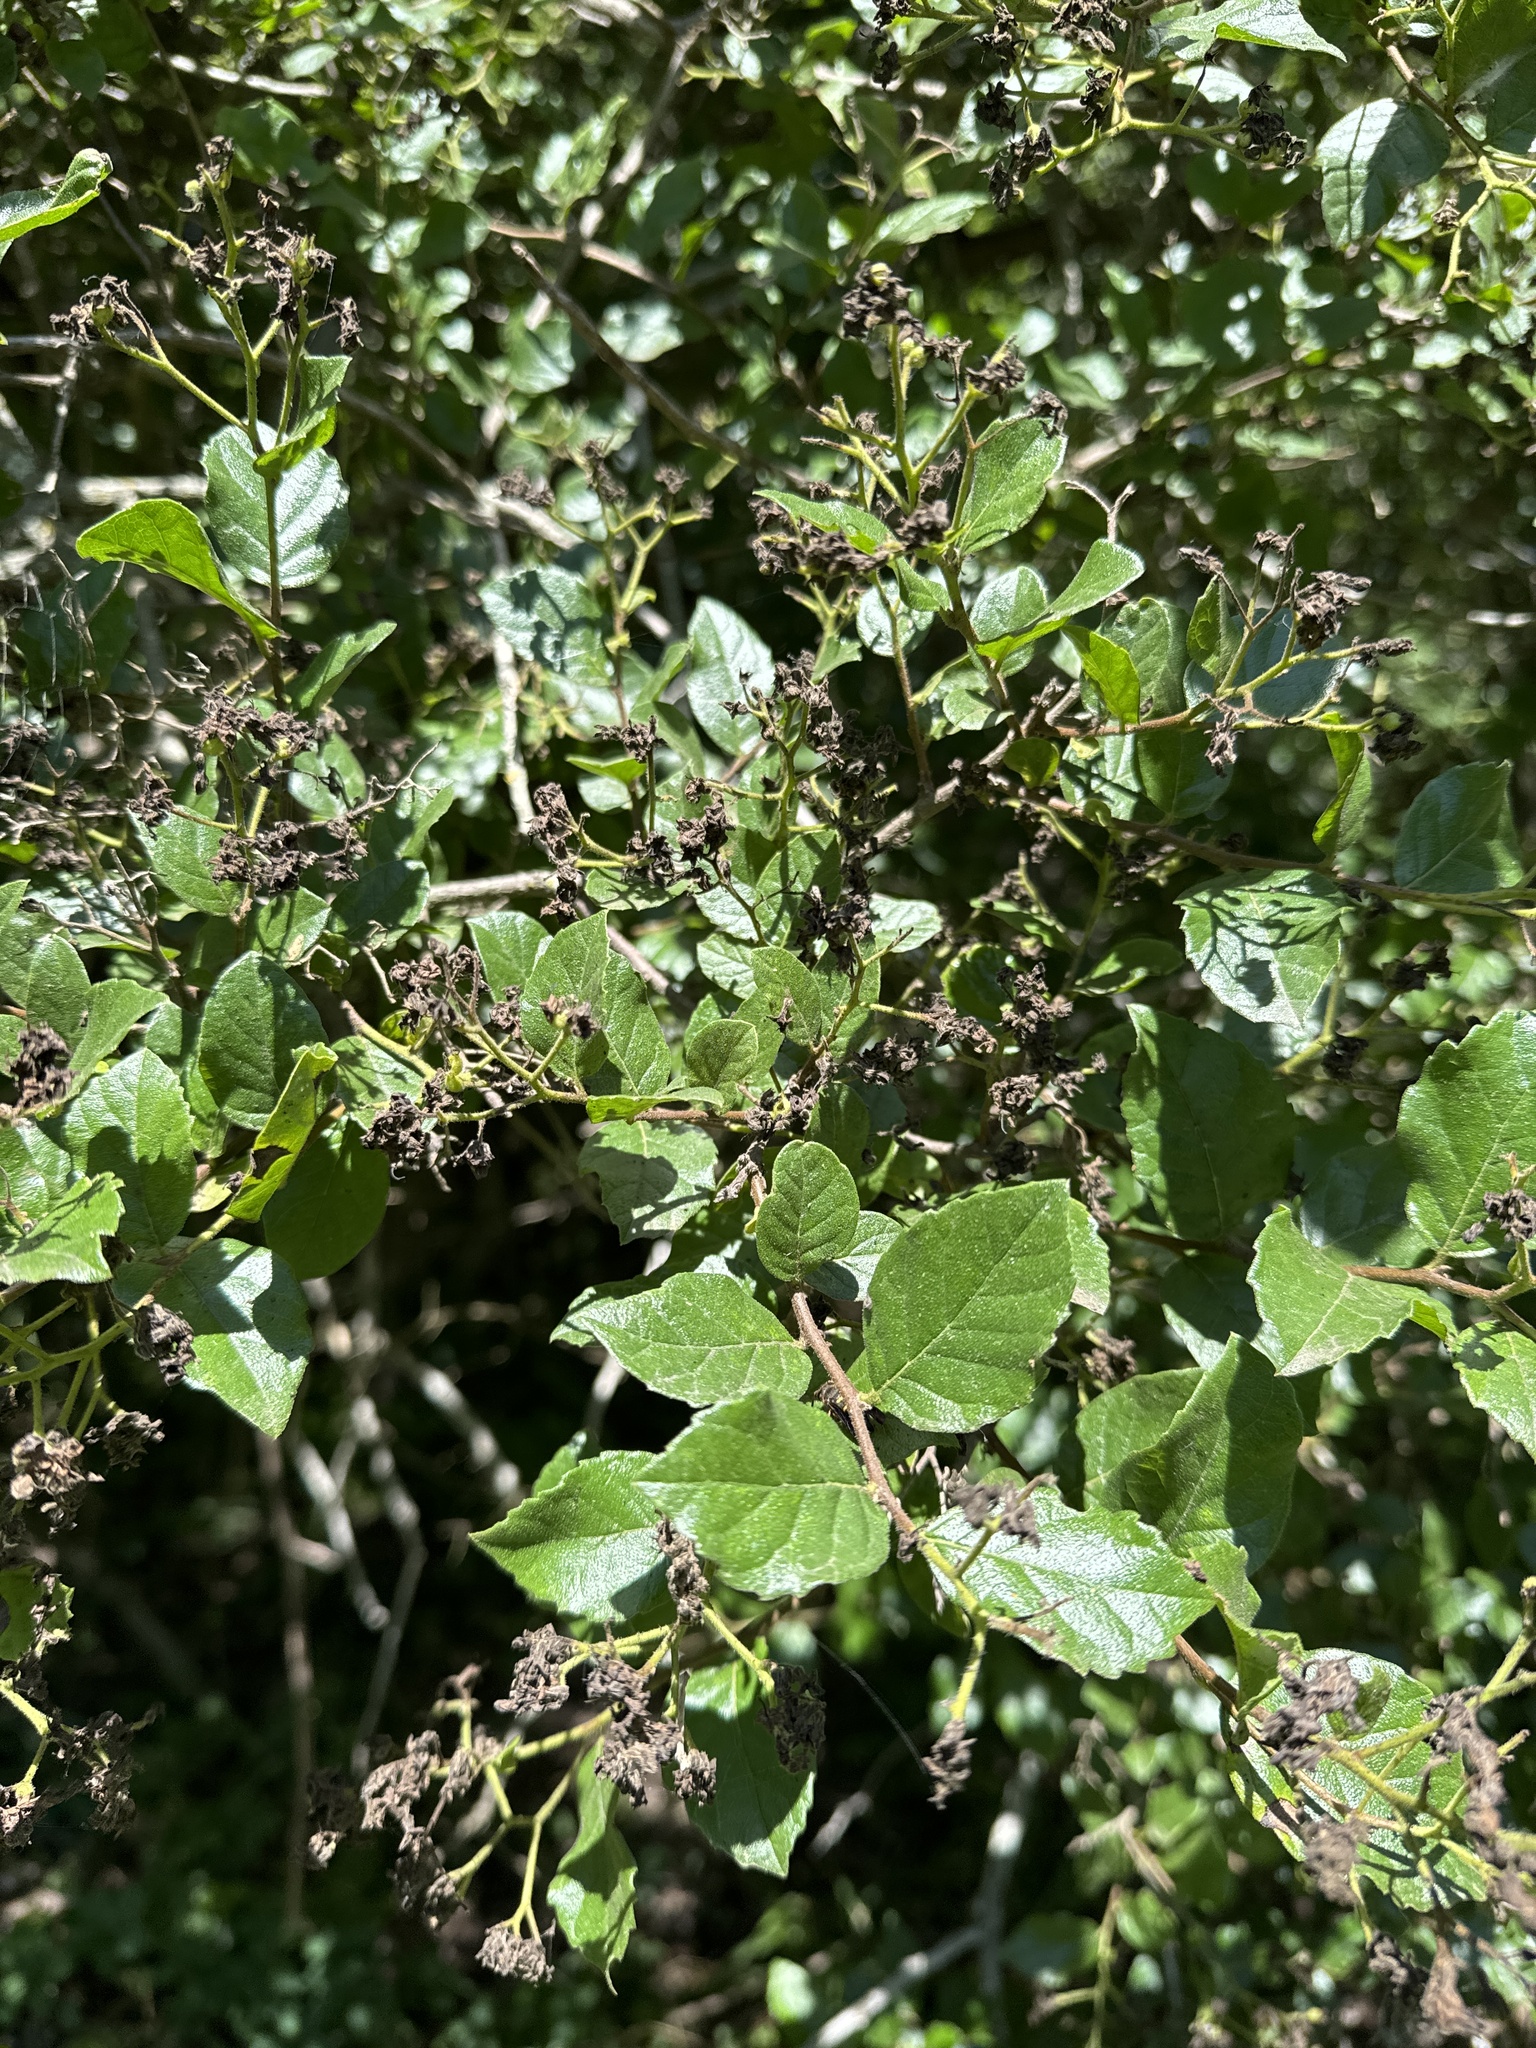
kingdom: Plantae
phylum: Tracheophyta
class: Magnoliopsida
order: Boraginales
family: Ehretiaceae
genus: Ehretia
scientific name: Ehretia anacua
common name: Sugarberry
